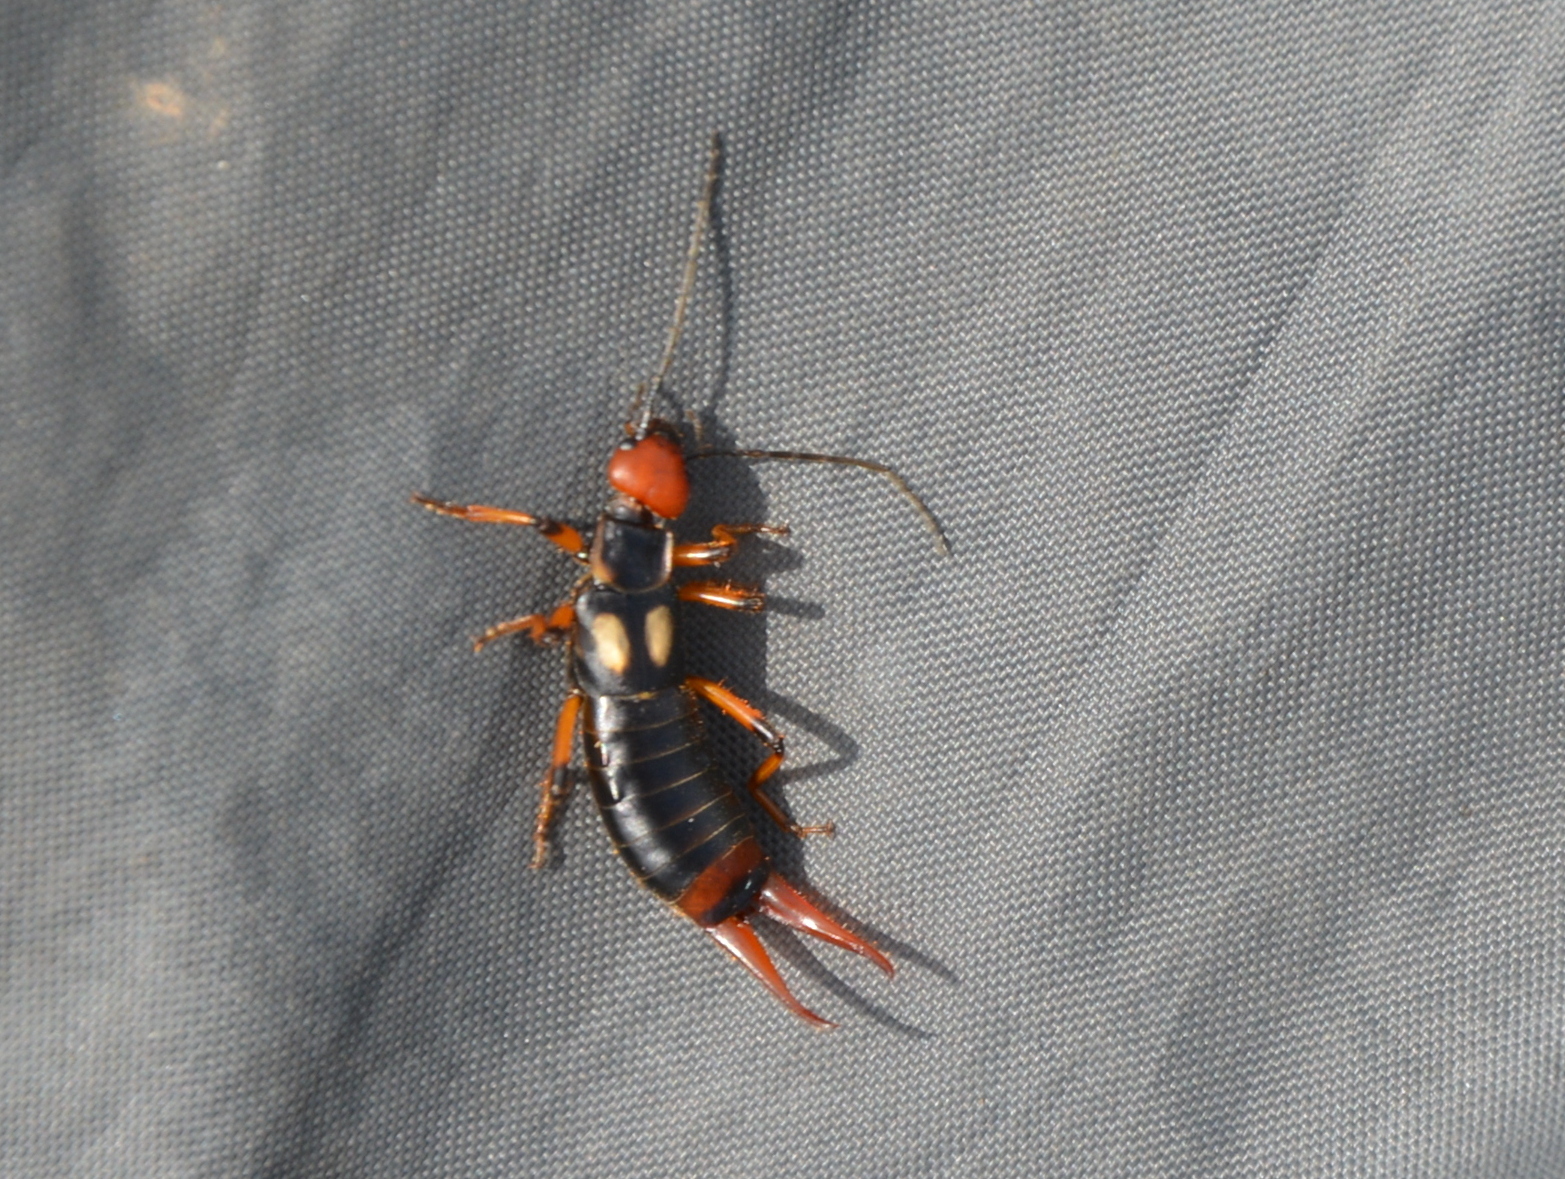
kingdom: Animalia
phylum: Arthropoda
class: Insecta
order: Dermaptera
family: Forficulidae
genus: Oreasiobia
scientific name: Oreasiobia fedtschenkoi
